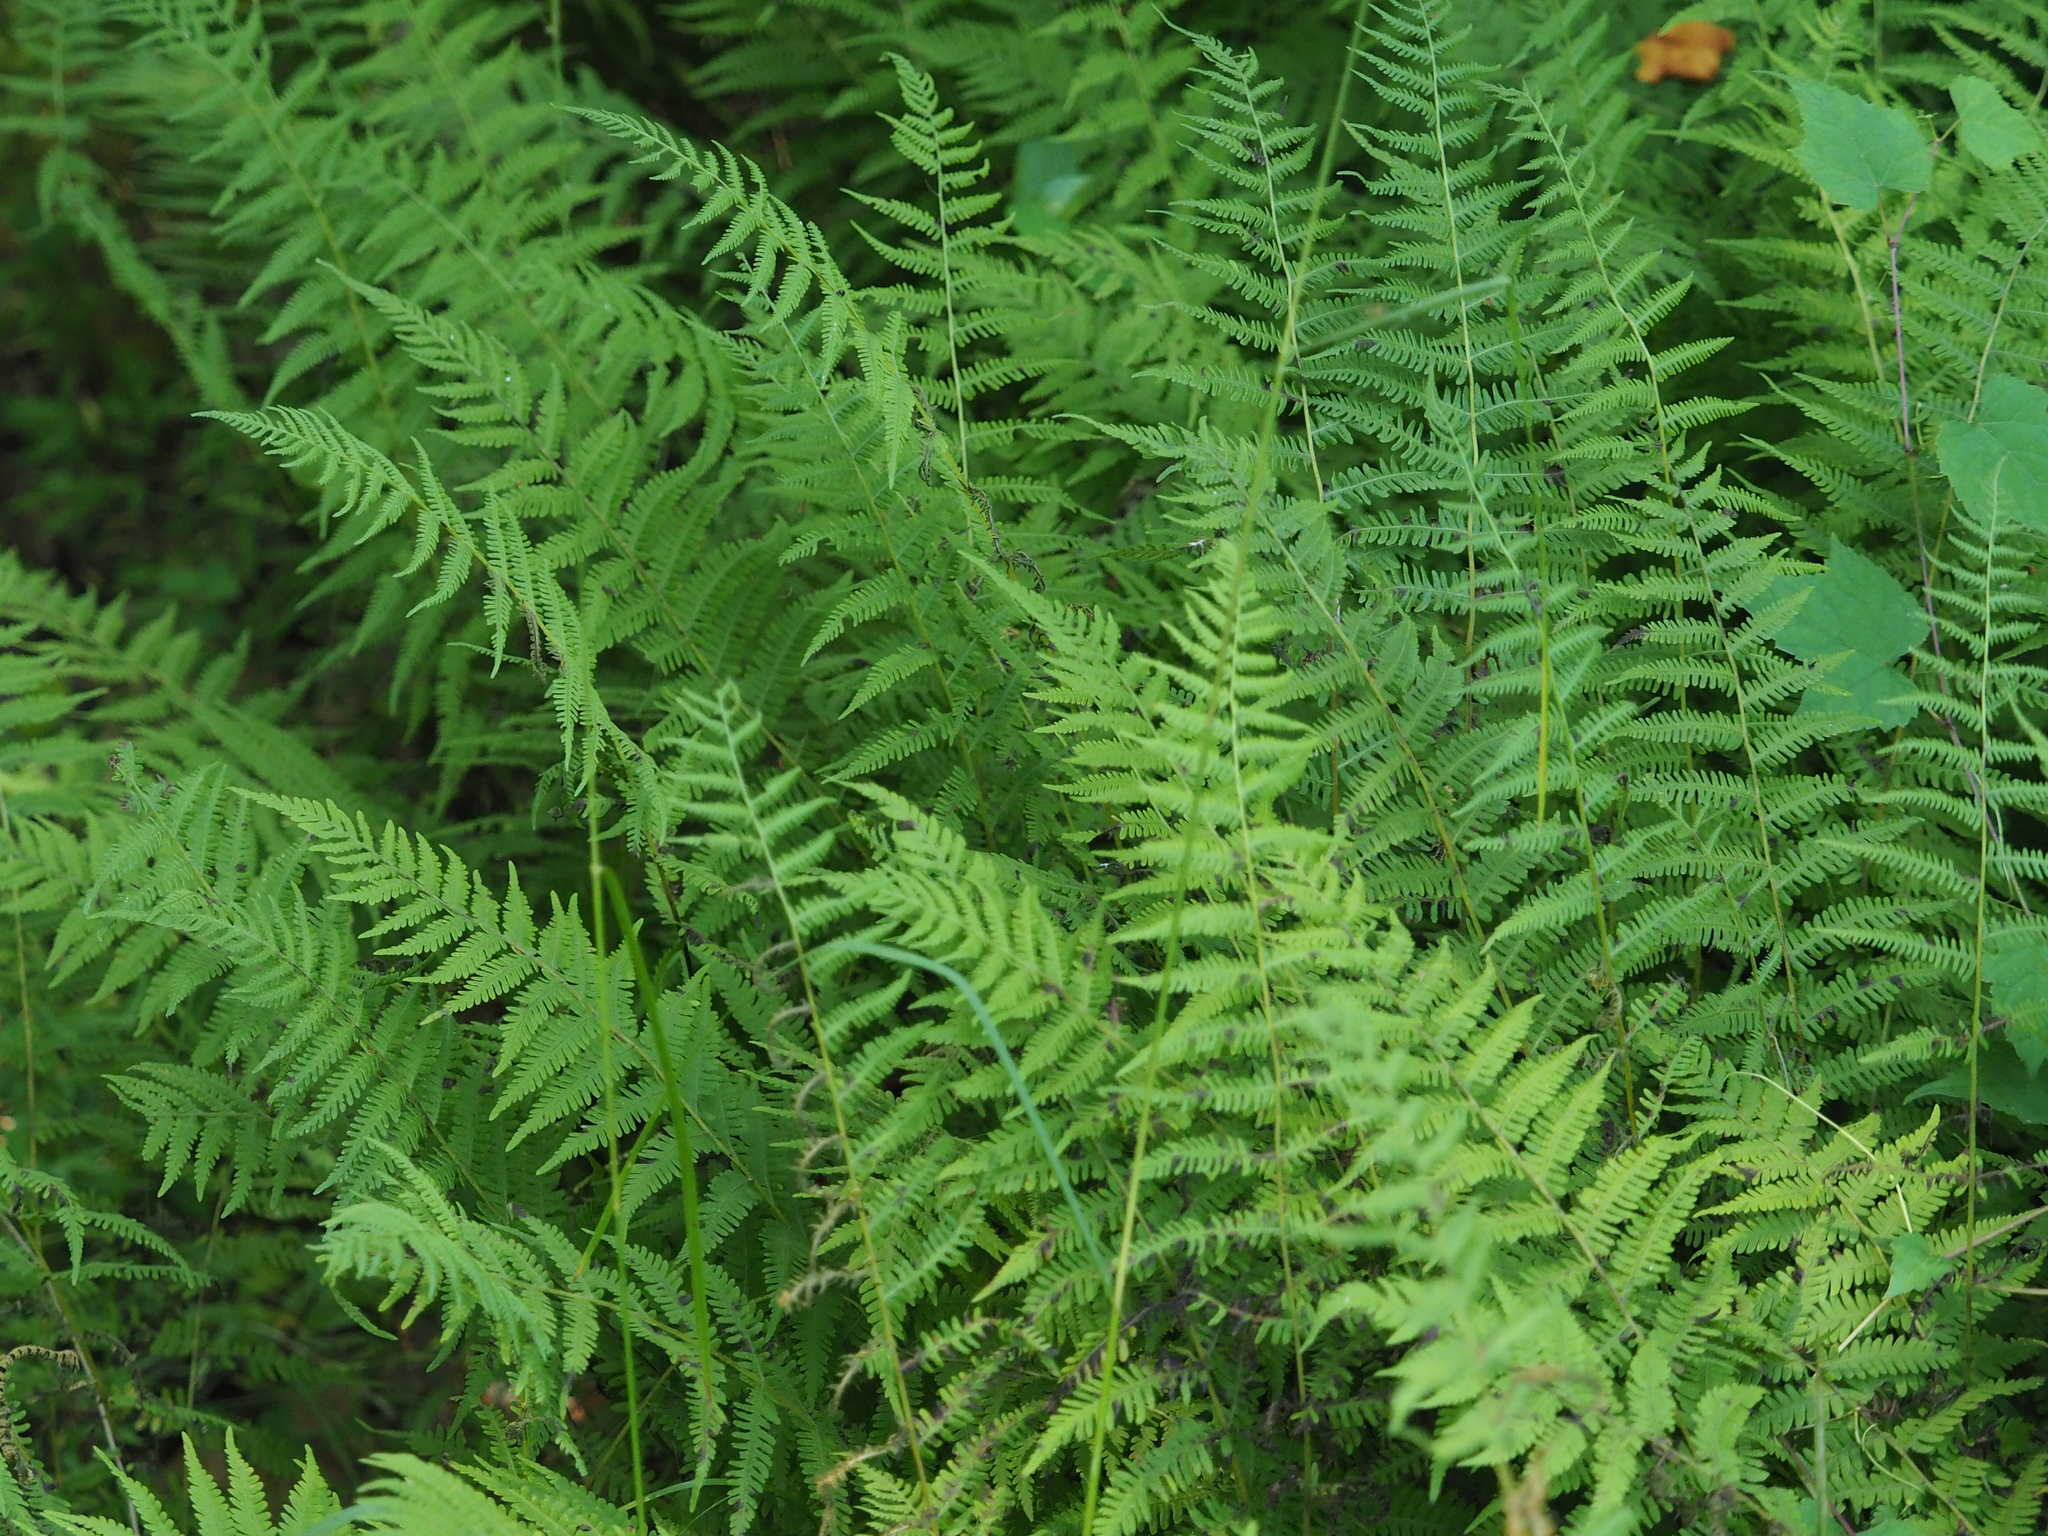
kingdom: Plantae
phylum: Tracheophyta
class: Polypodiopsida
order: Polypodiales
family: Thelypteridaceae
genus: Amauropelta
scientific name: Amauropelta noveboracensis
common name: New york fern
